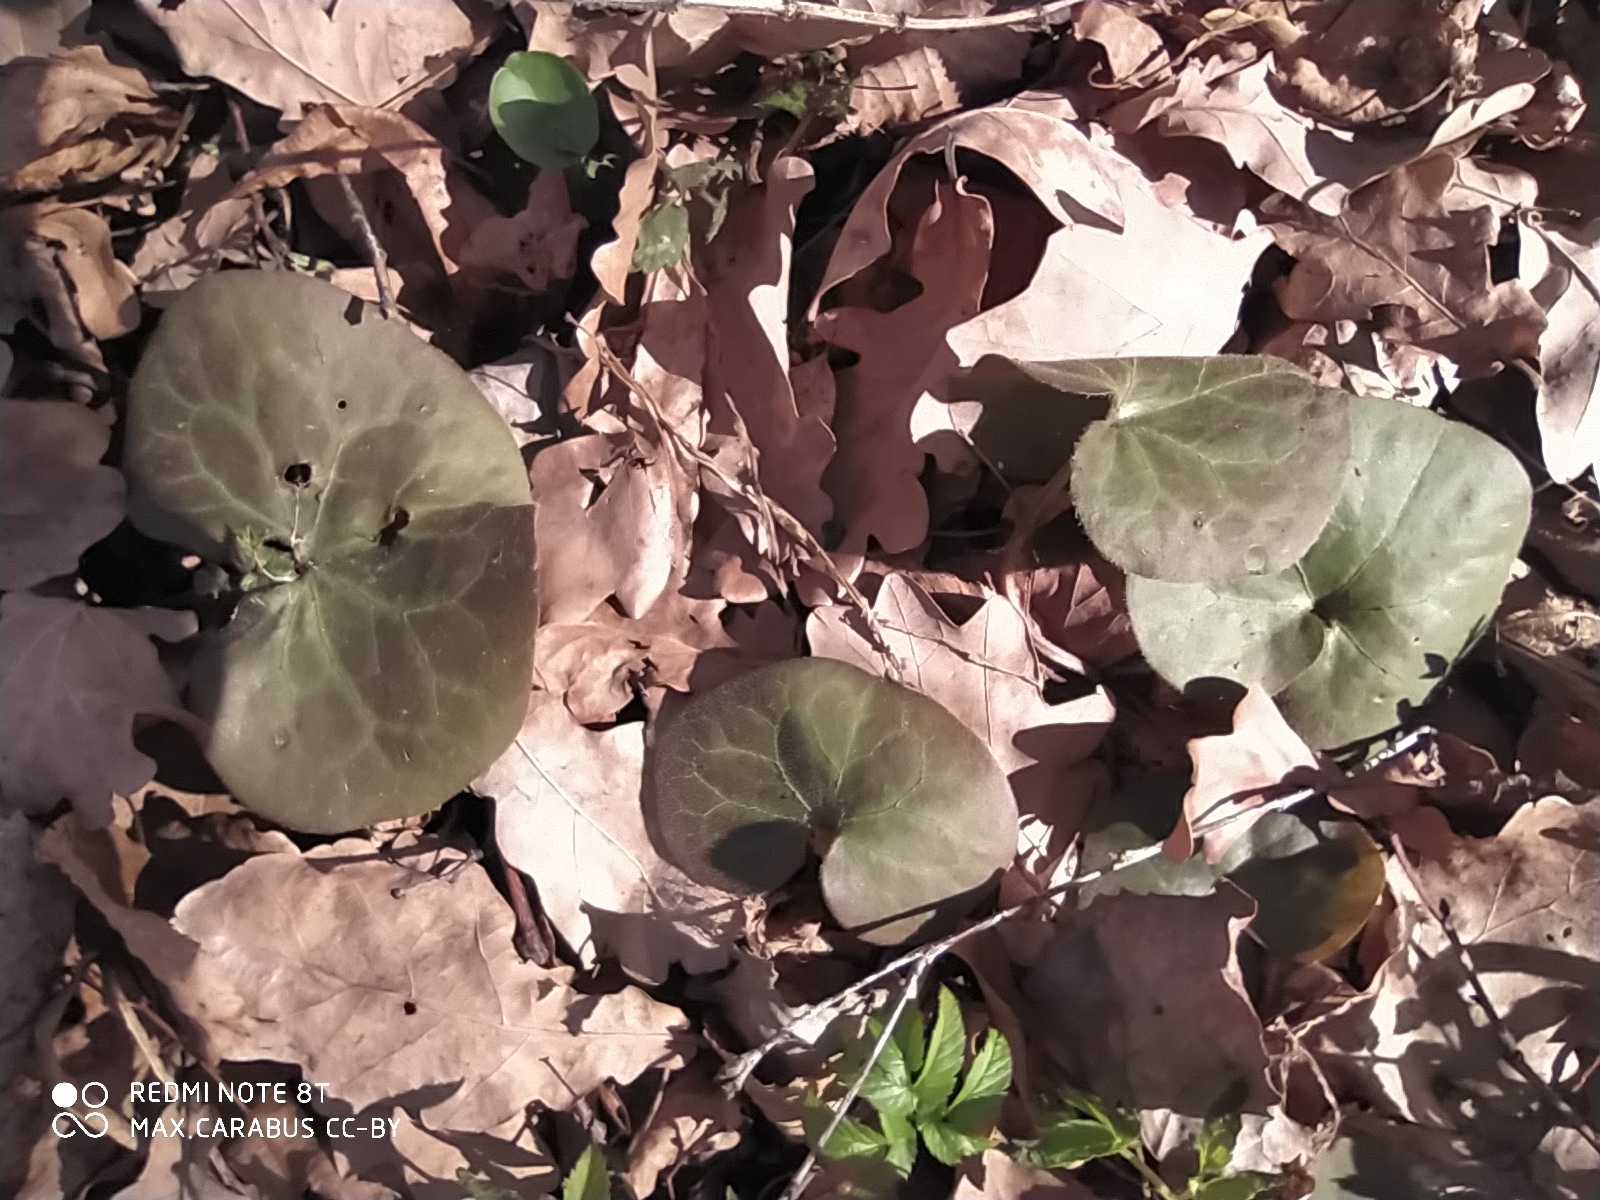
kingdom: Plantae
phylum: Tracheophyta
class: Magnoliopsida
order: Piperales
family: Aristolochiaceae
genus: Asarum
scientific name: Asarum europaeum
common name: Asarabacca
